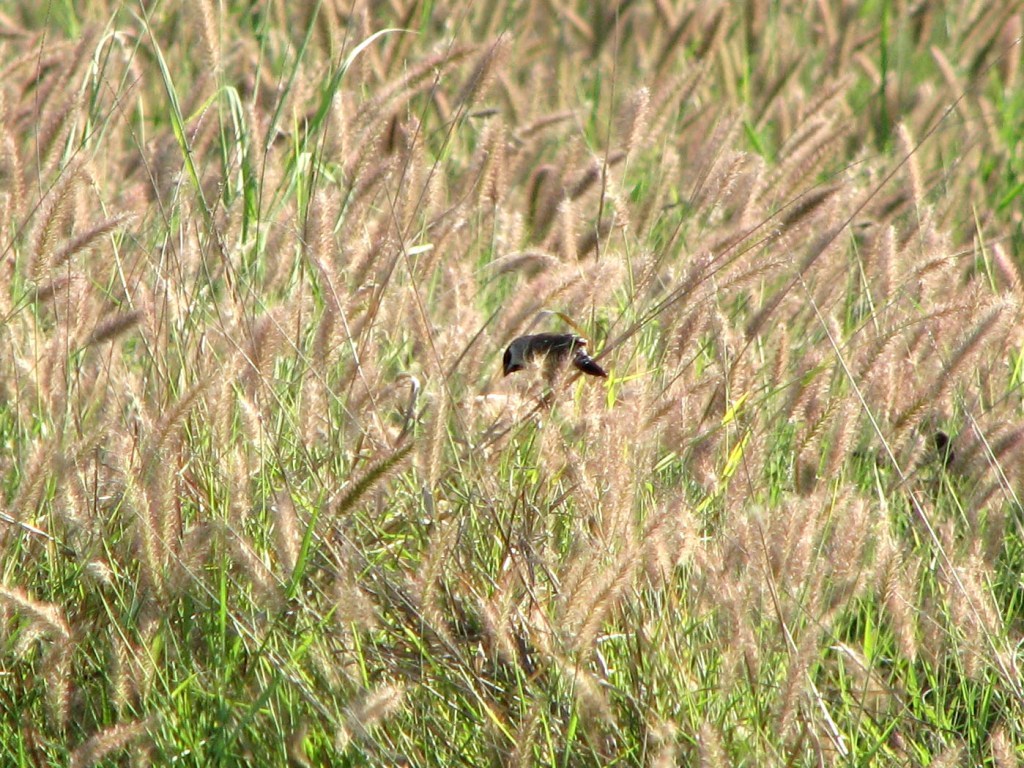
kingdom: Animalia
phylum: Chordata
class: Aves
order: Passeriformes
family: Estrildidae
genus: Neochmia
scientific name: Neochmia modesta
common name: Plum-headed finch
